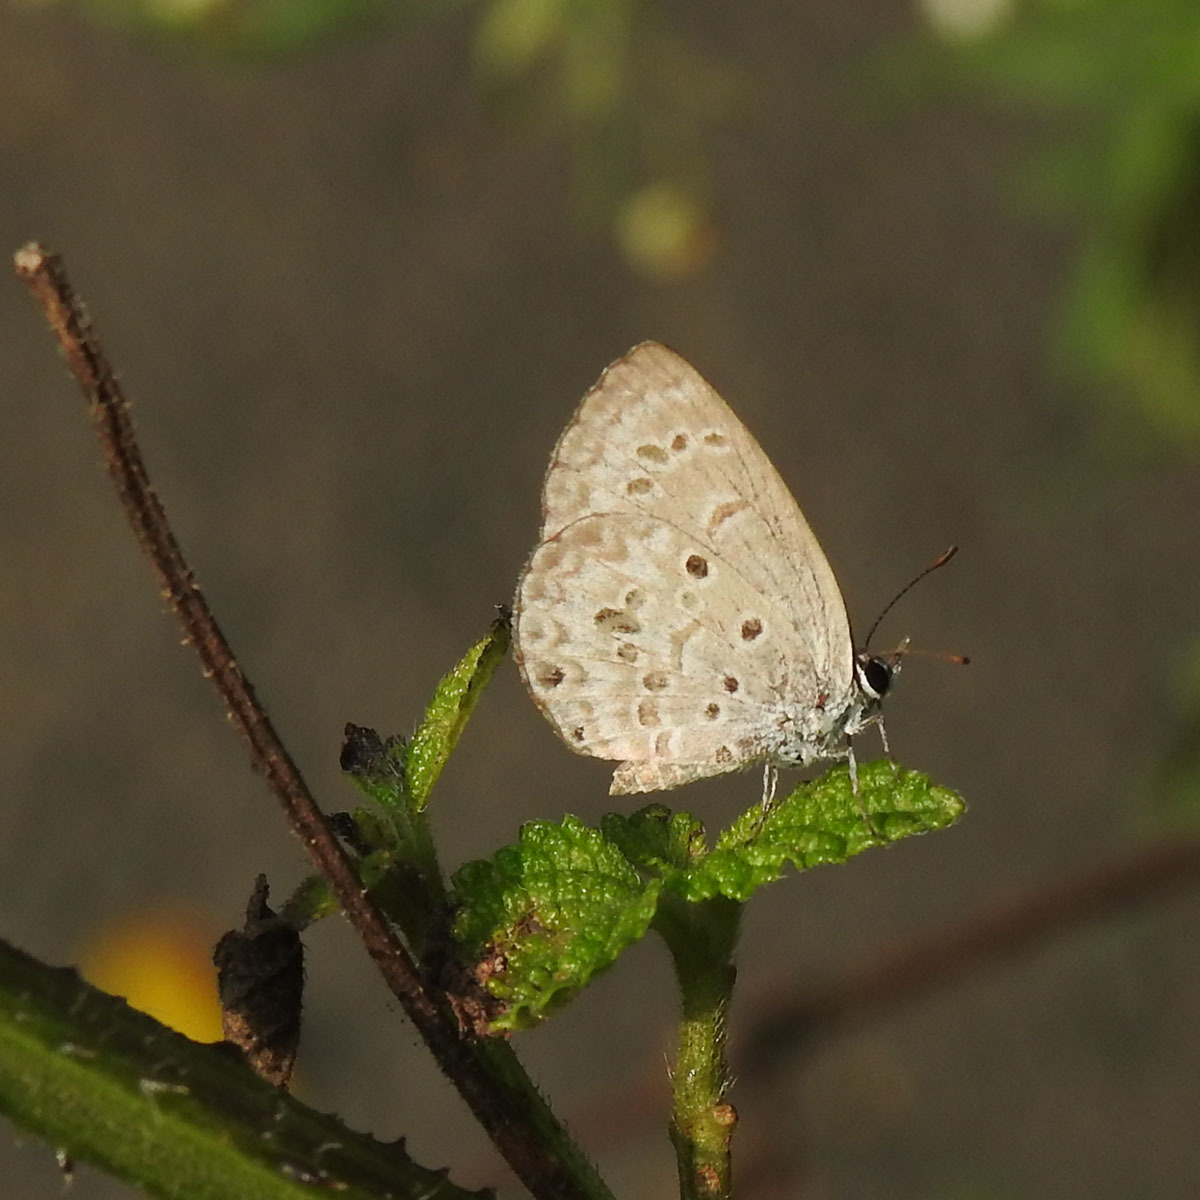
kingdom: Animalia
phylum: Arthropoda
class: Insecta
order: Lepidoptera
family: Lycaenidae
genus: Chilades
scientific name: Chilades laius
